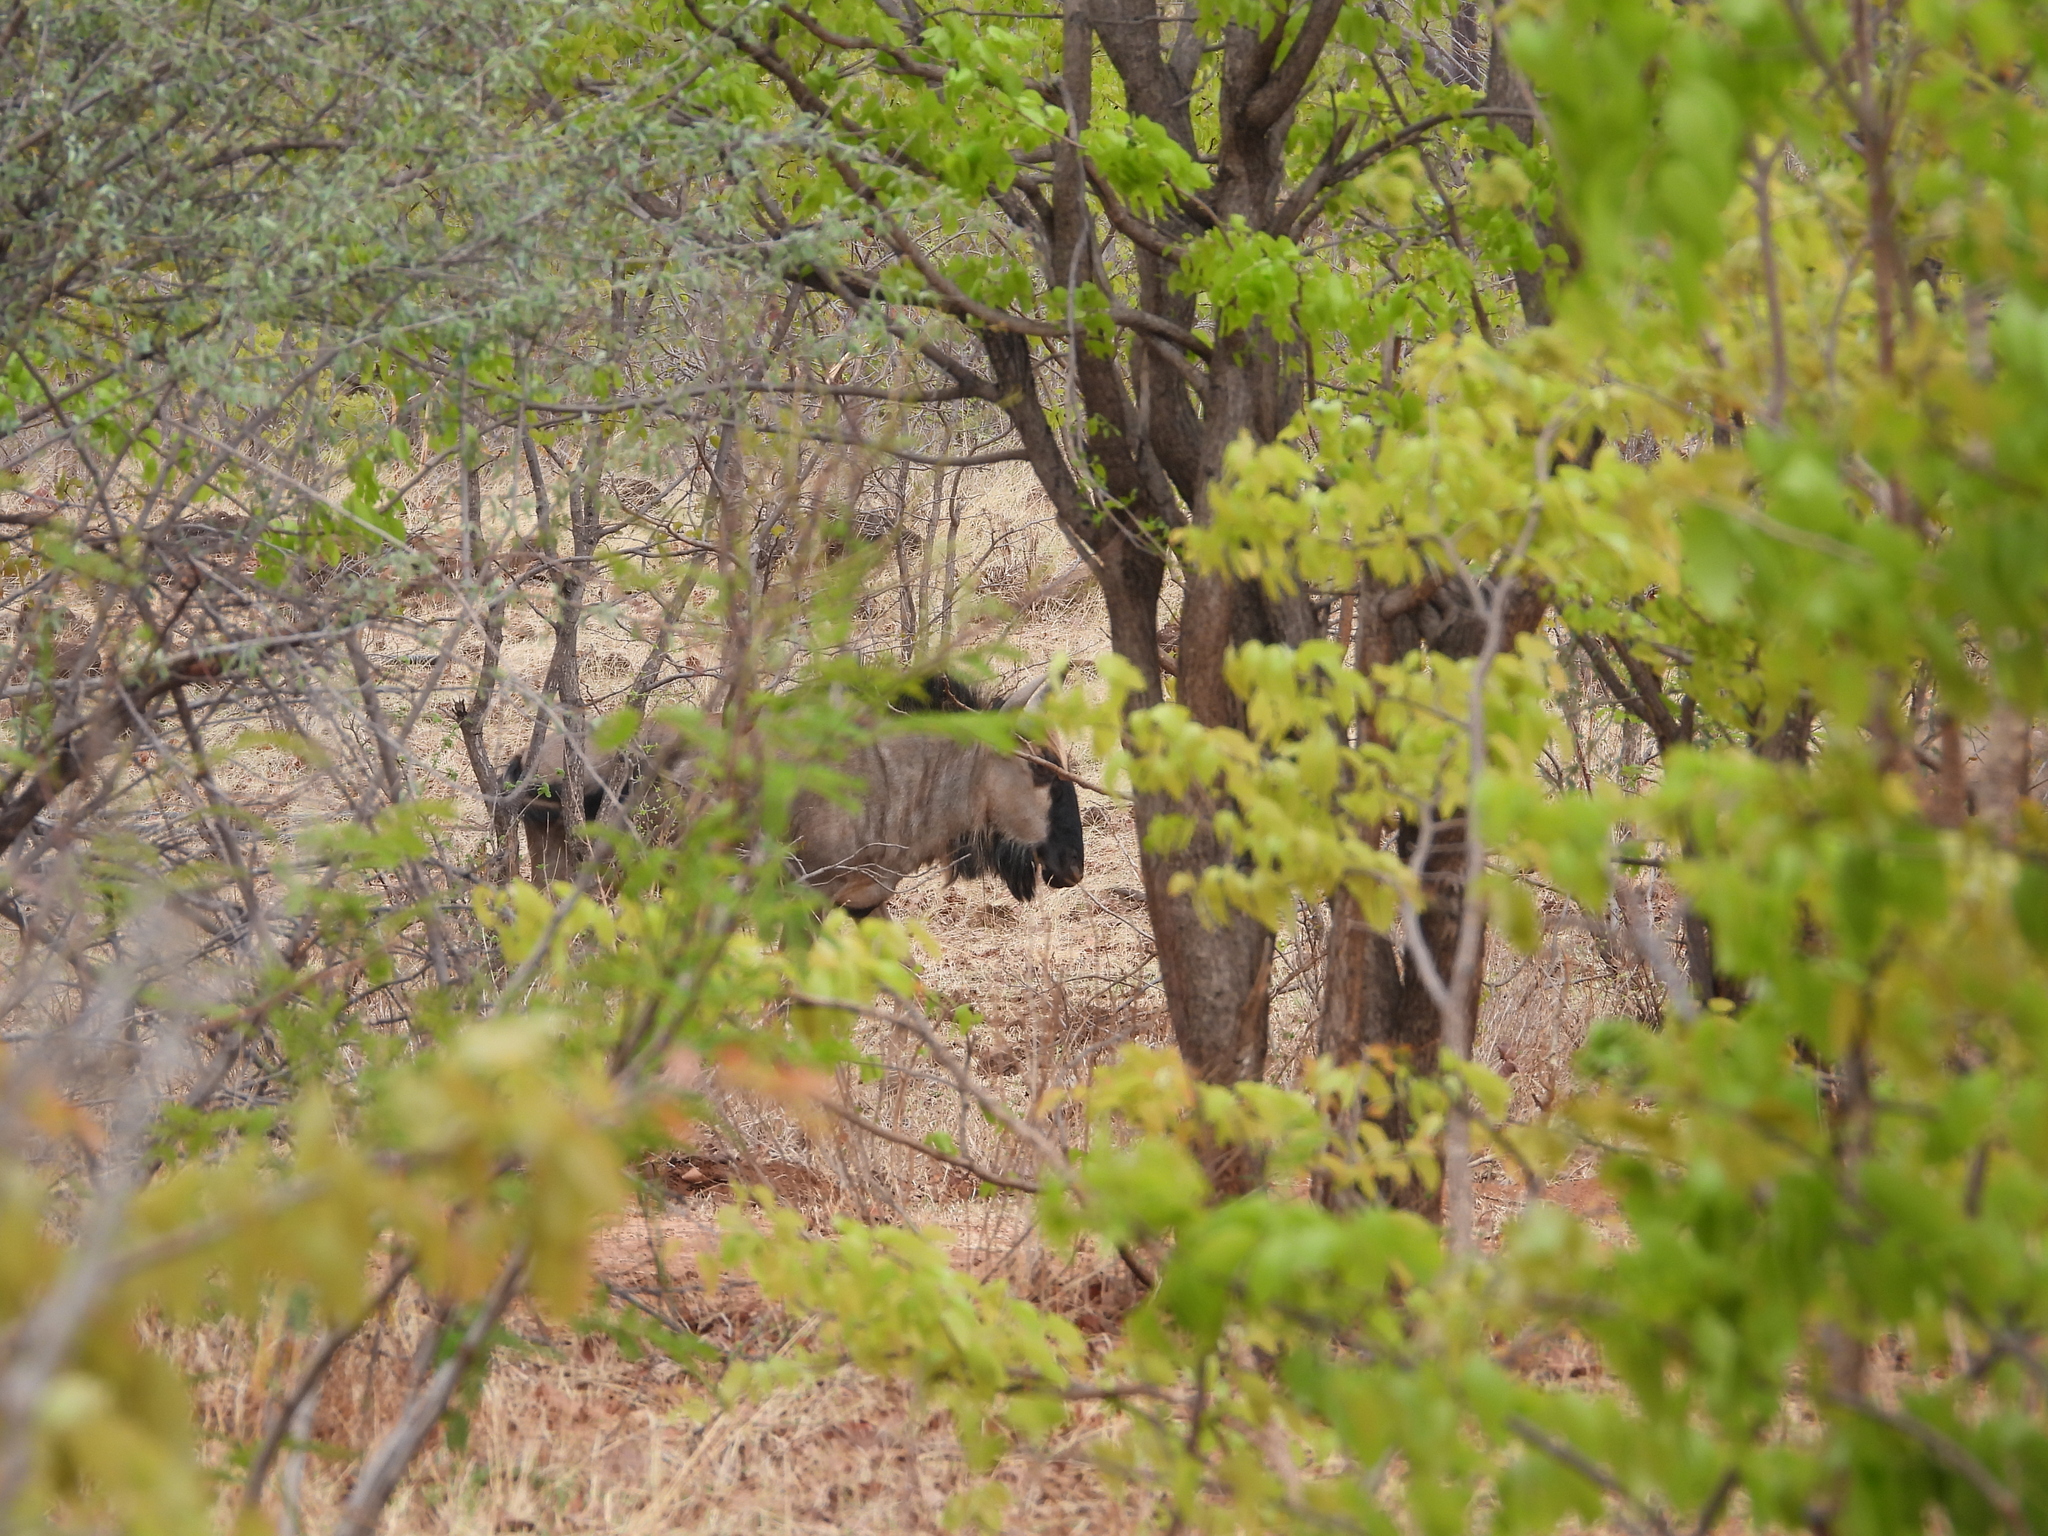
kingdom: Animalia
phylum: Chordata
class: Mammalia
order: Artiodactyla
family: Bovidae
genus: Connochaetes
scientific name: Connochaetes taurinus
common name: Blue wildebeest
